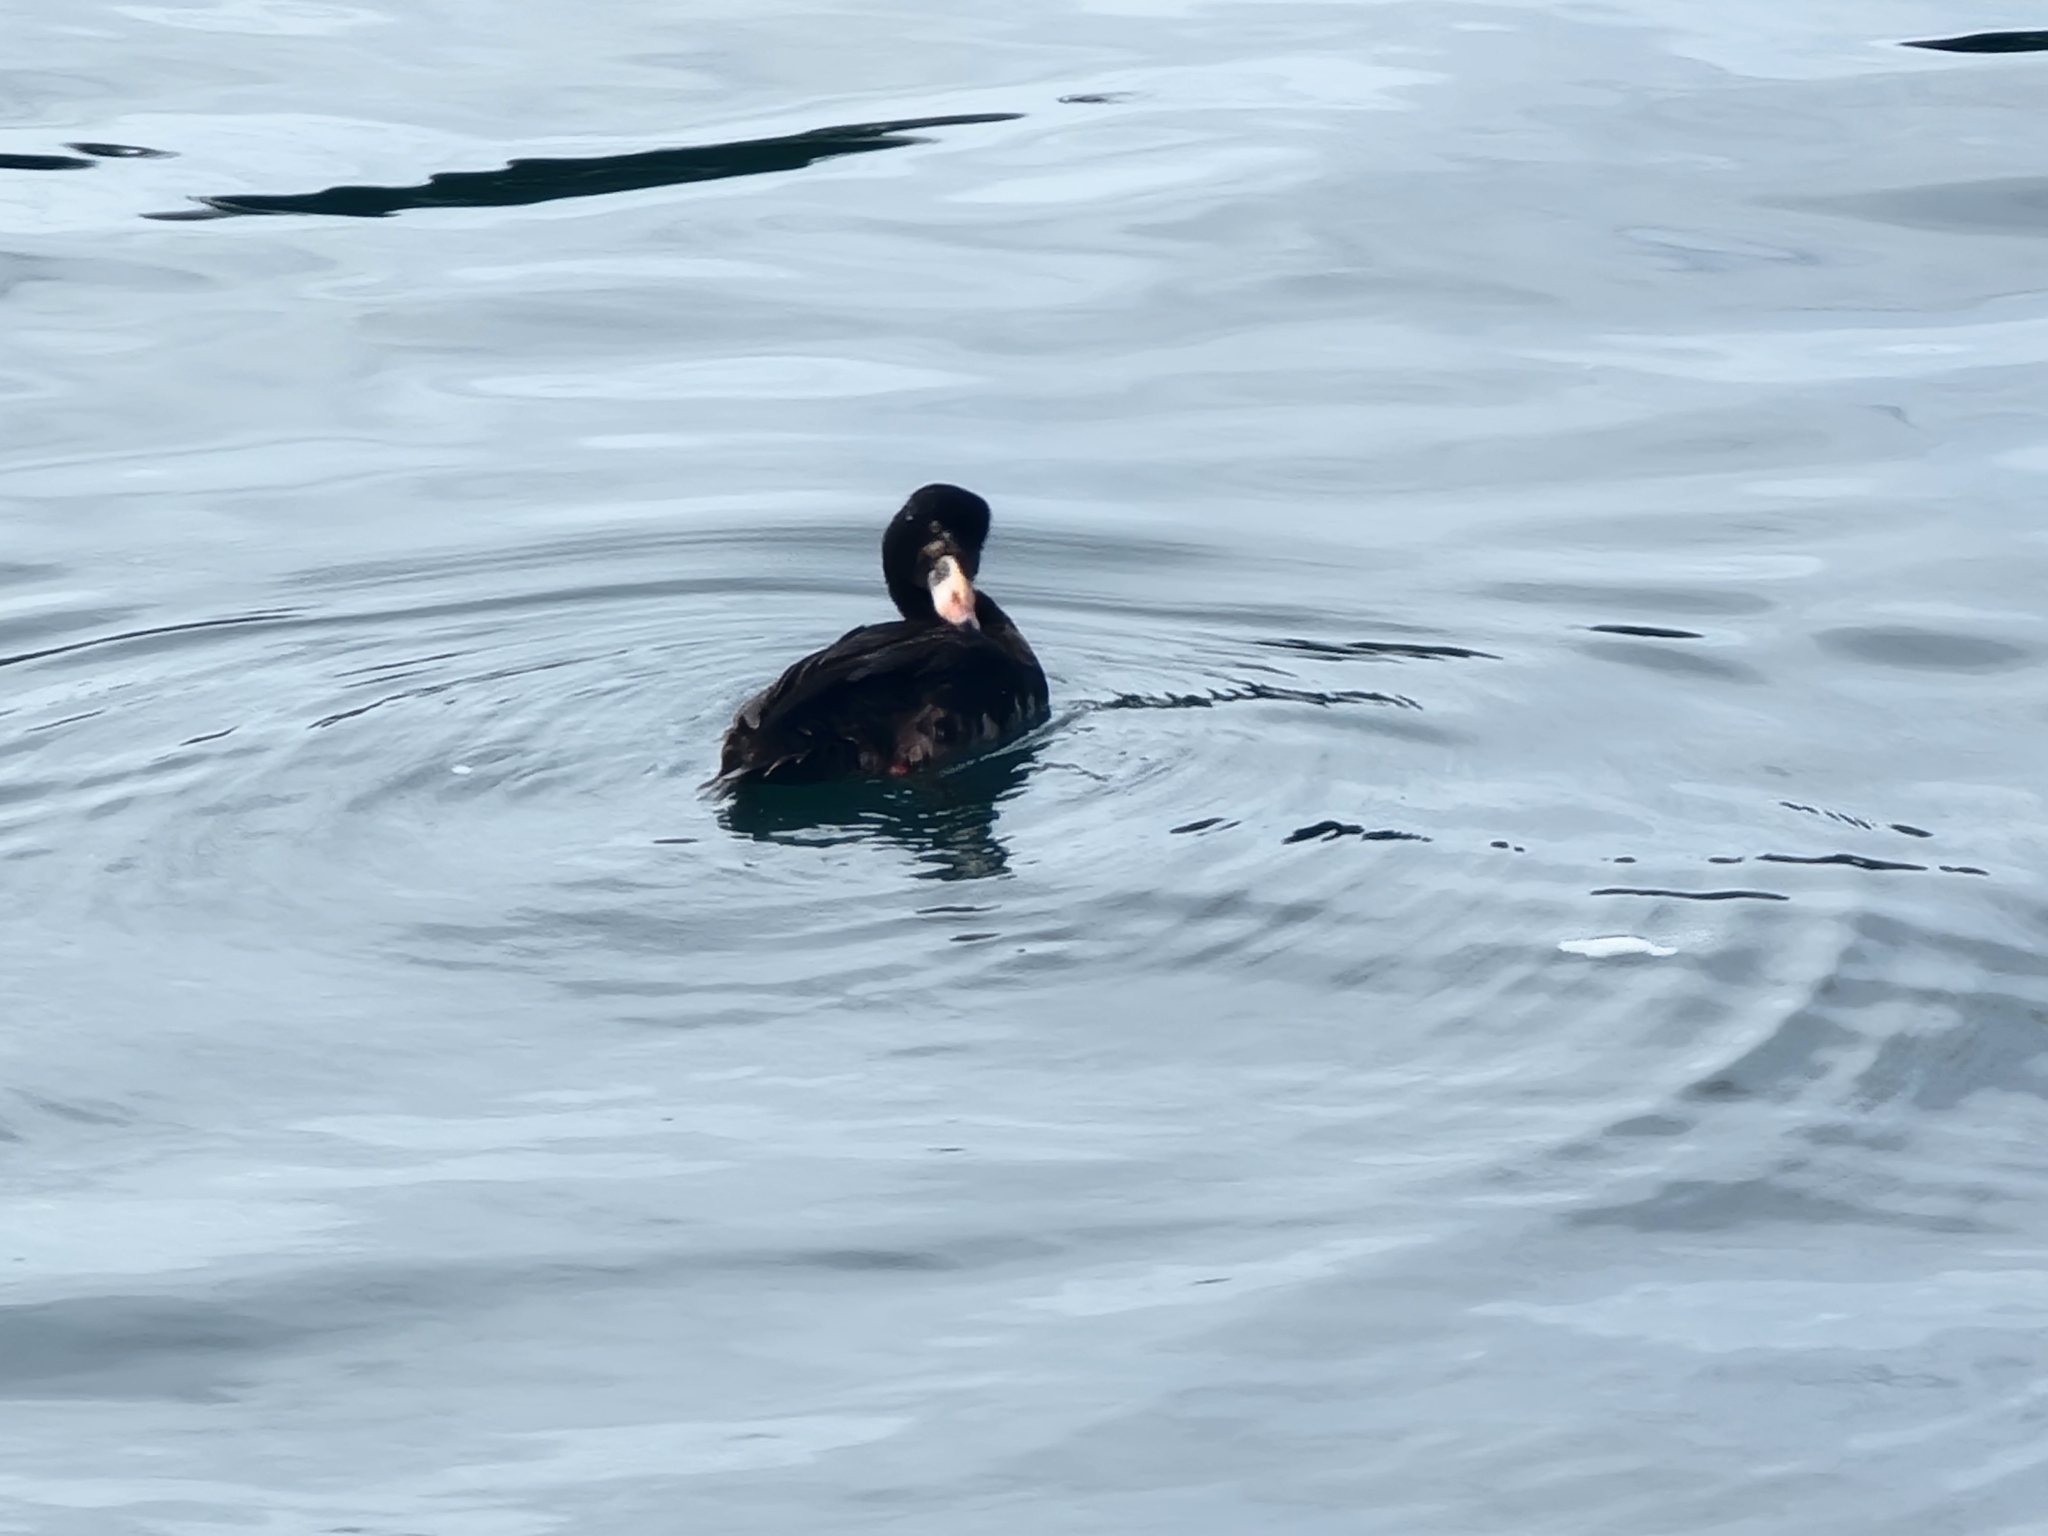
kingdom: Animalia
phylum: Chordata
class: Aves
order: Anseriformes
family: Anatidae
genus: Melanitta
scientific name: Melanitta perspicillata
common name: Surf scoter
